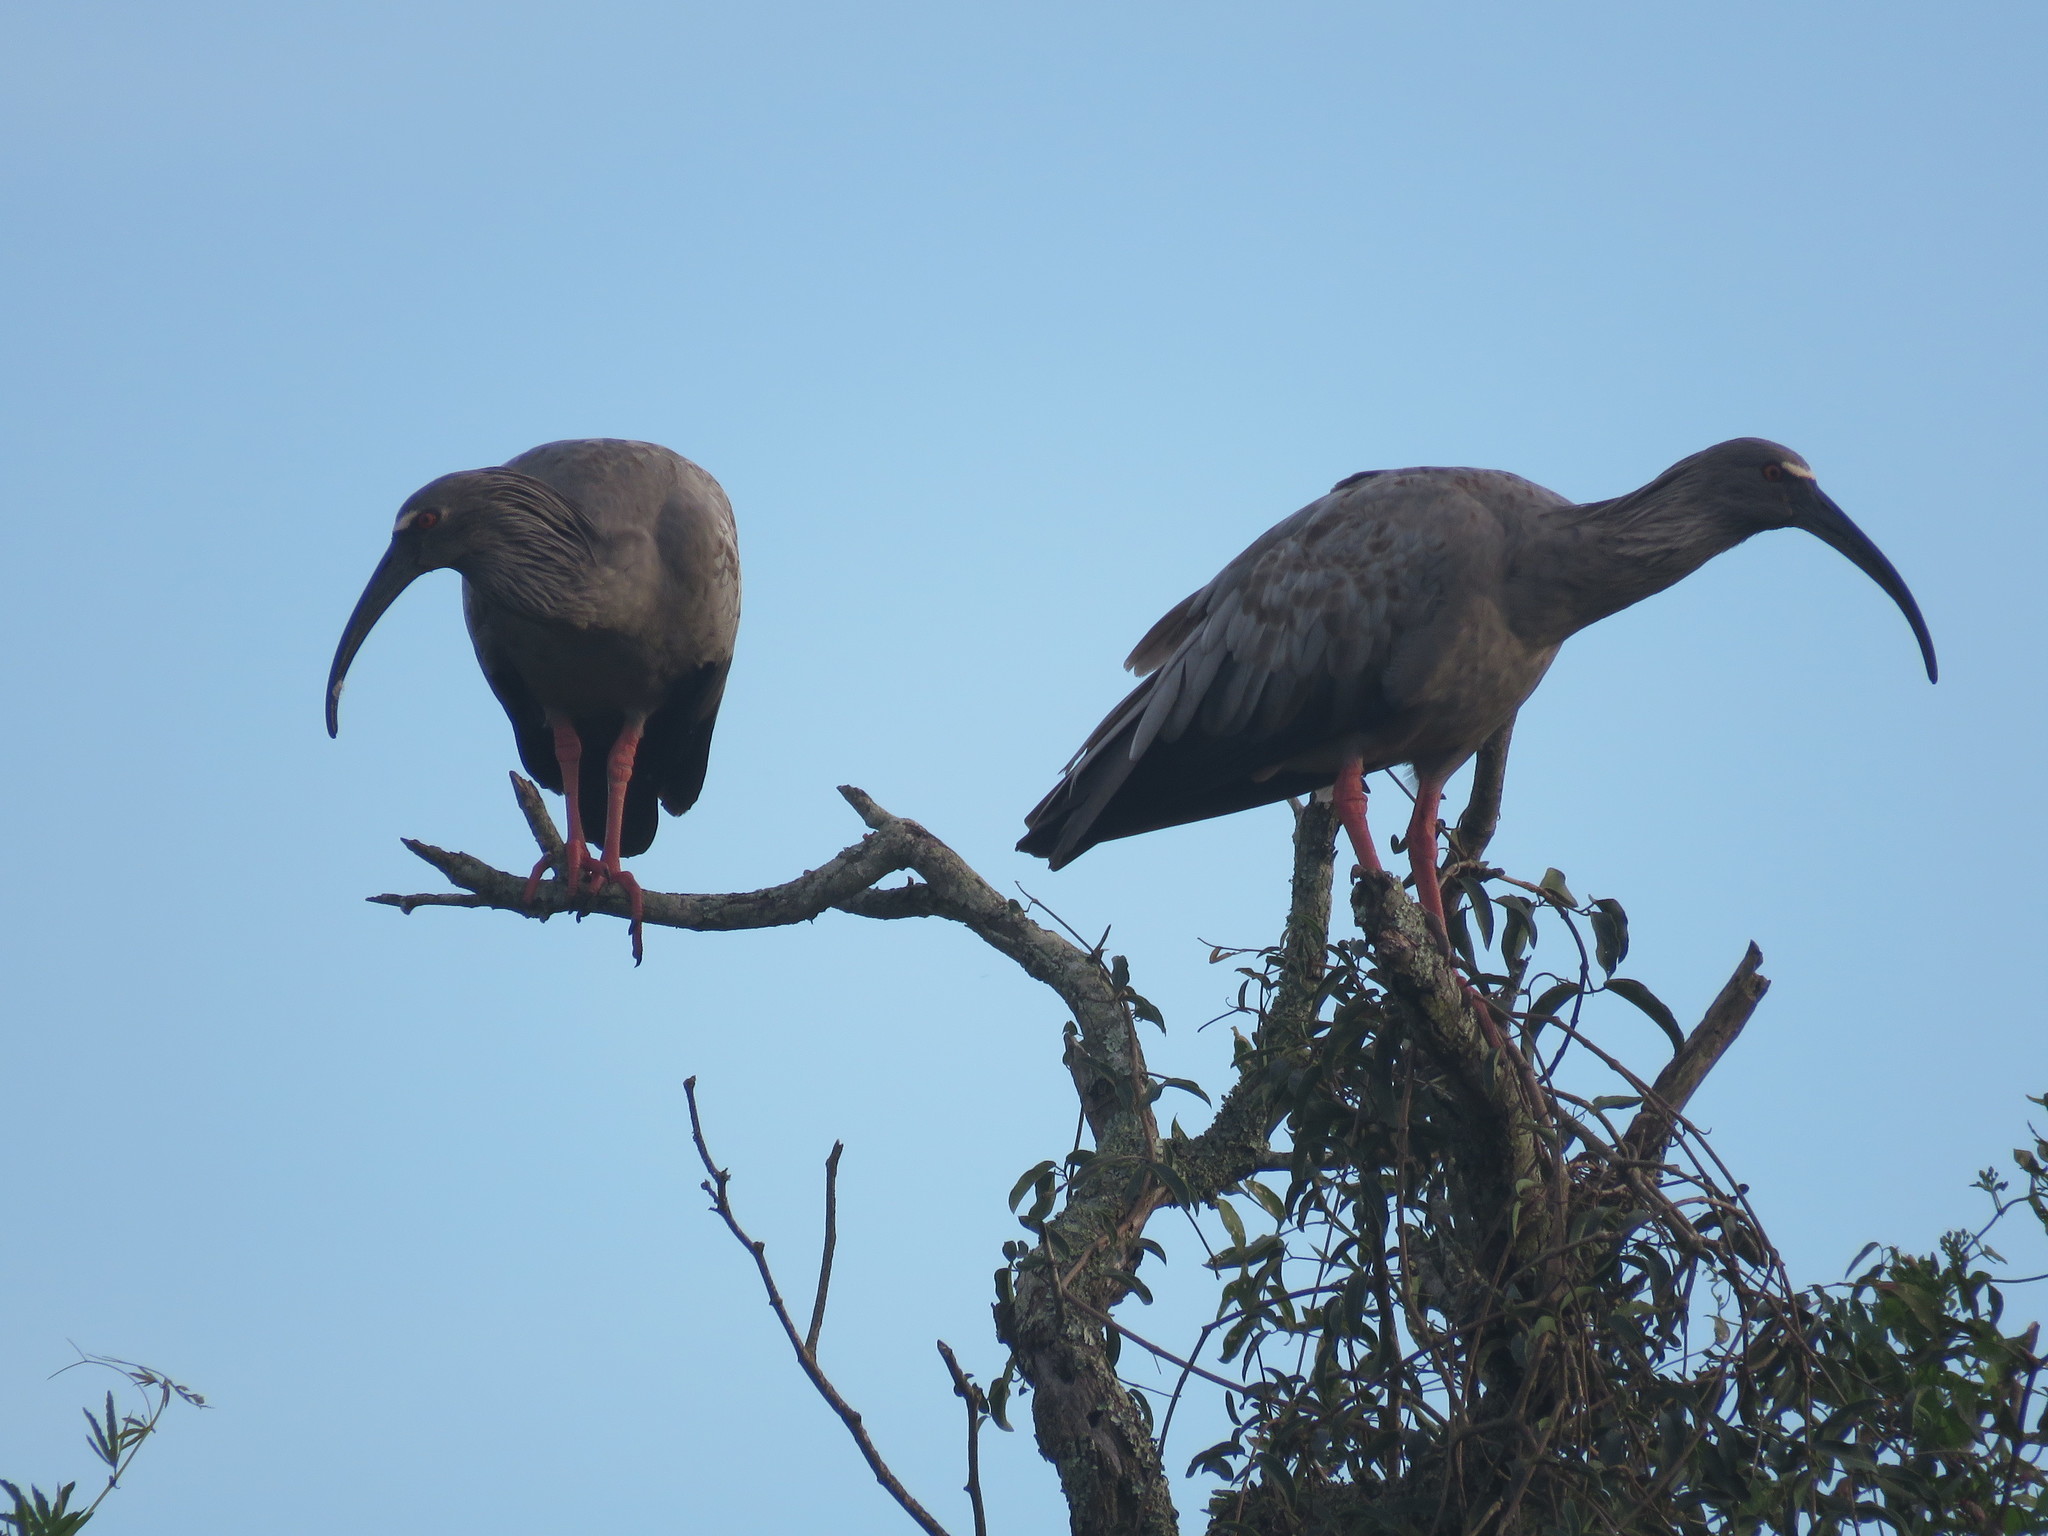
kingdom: Animalia
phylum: Chordata
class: Aves
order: Pelecaniformes
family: Threskiornithidae
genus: Theristicus
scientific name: Theristicus caerulescens
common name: Plumbeous ibis
